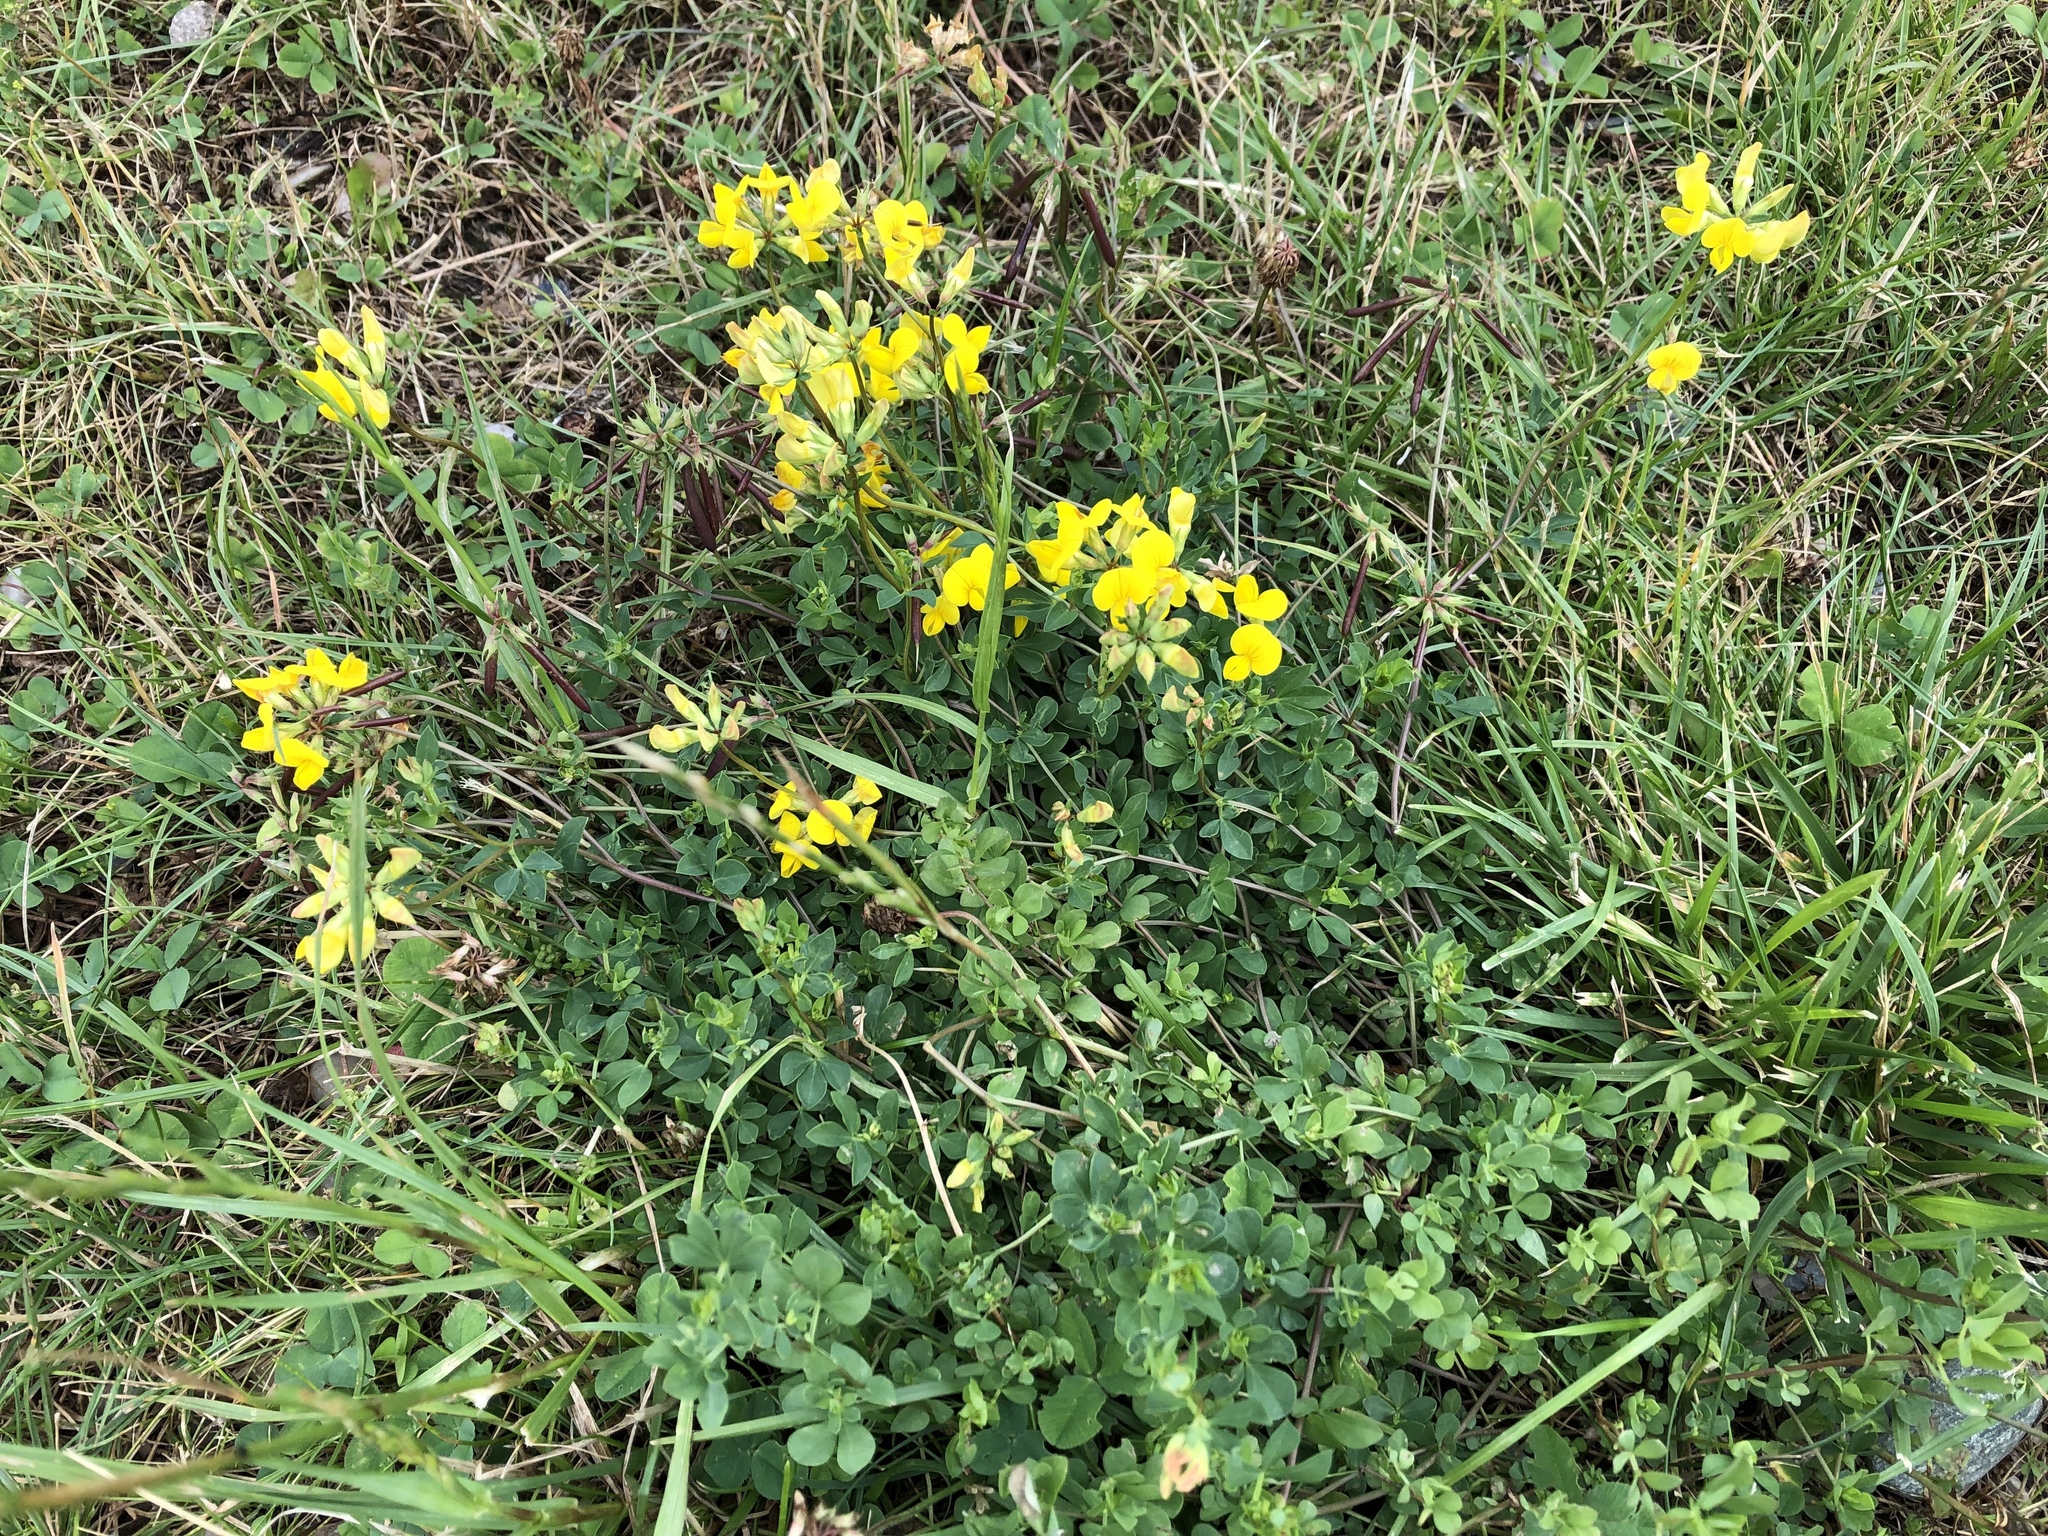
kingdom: Plantae
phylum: Tracheophyta
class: Magnoliopsida
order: Fabales
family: Fabaceae
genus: Lotus
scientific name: Lotus corniculatus
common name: Common bird's-foot-trefoil
